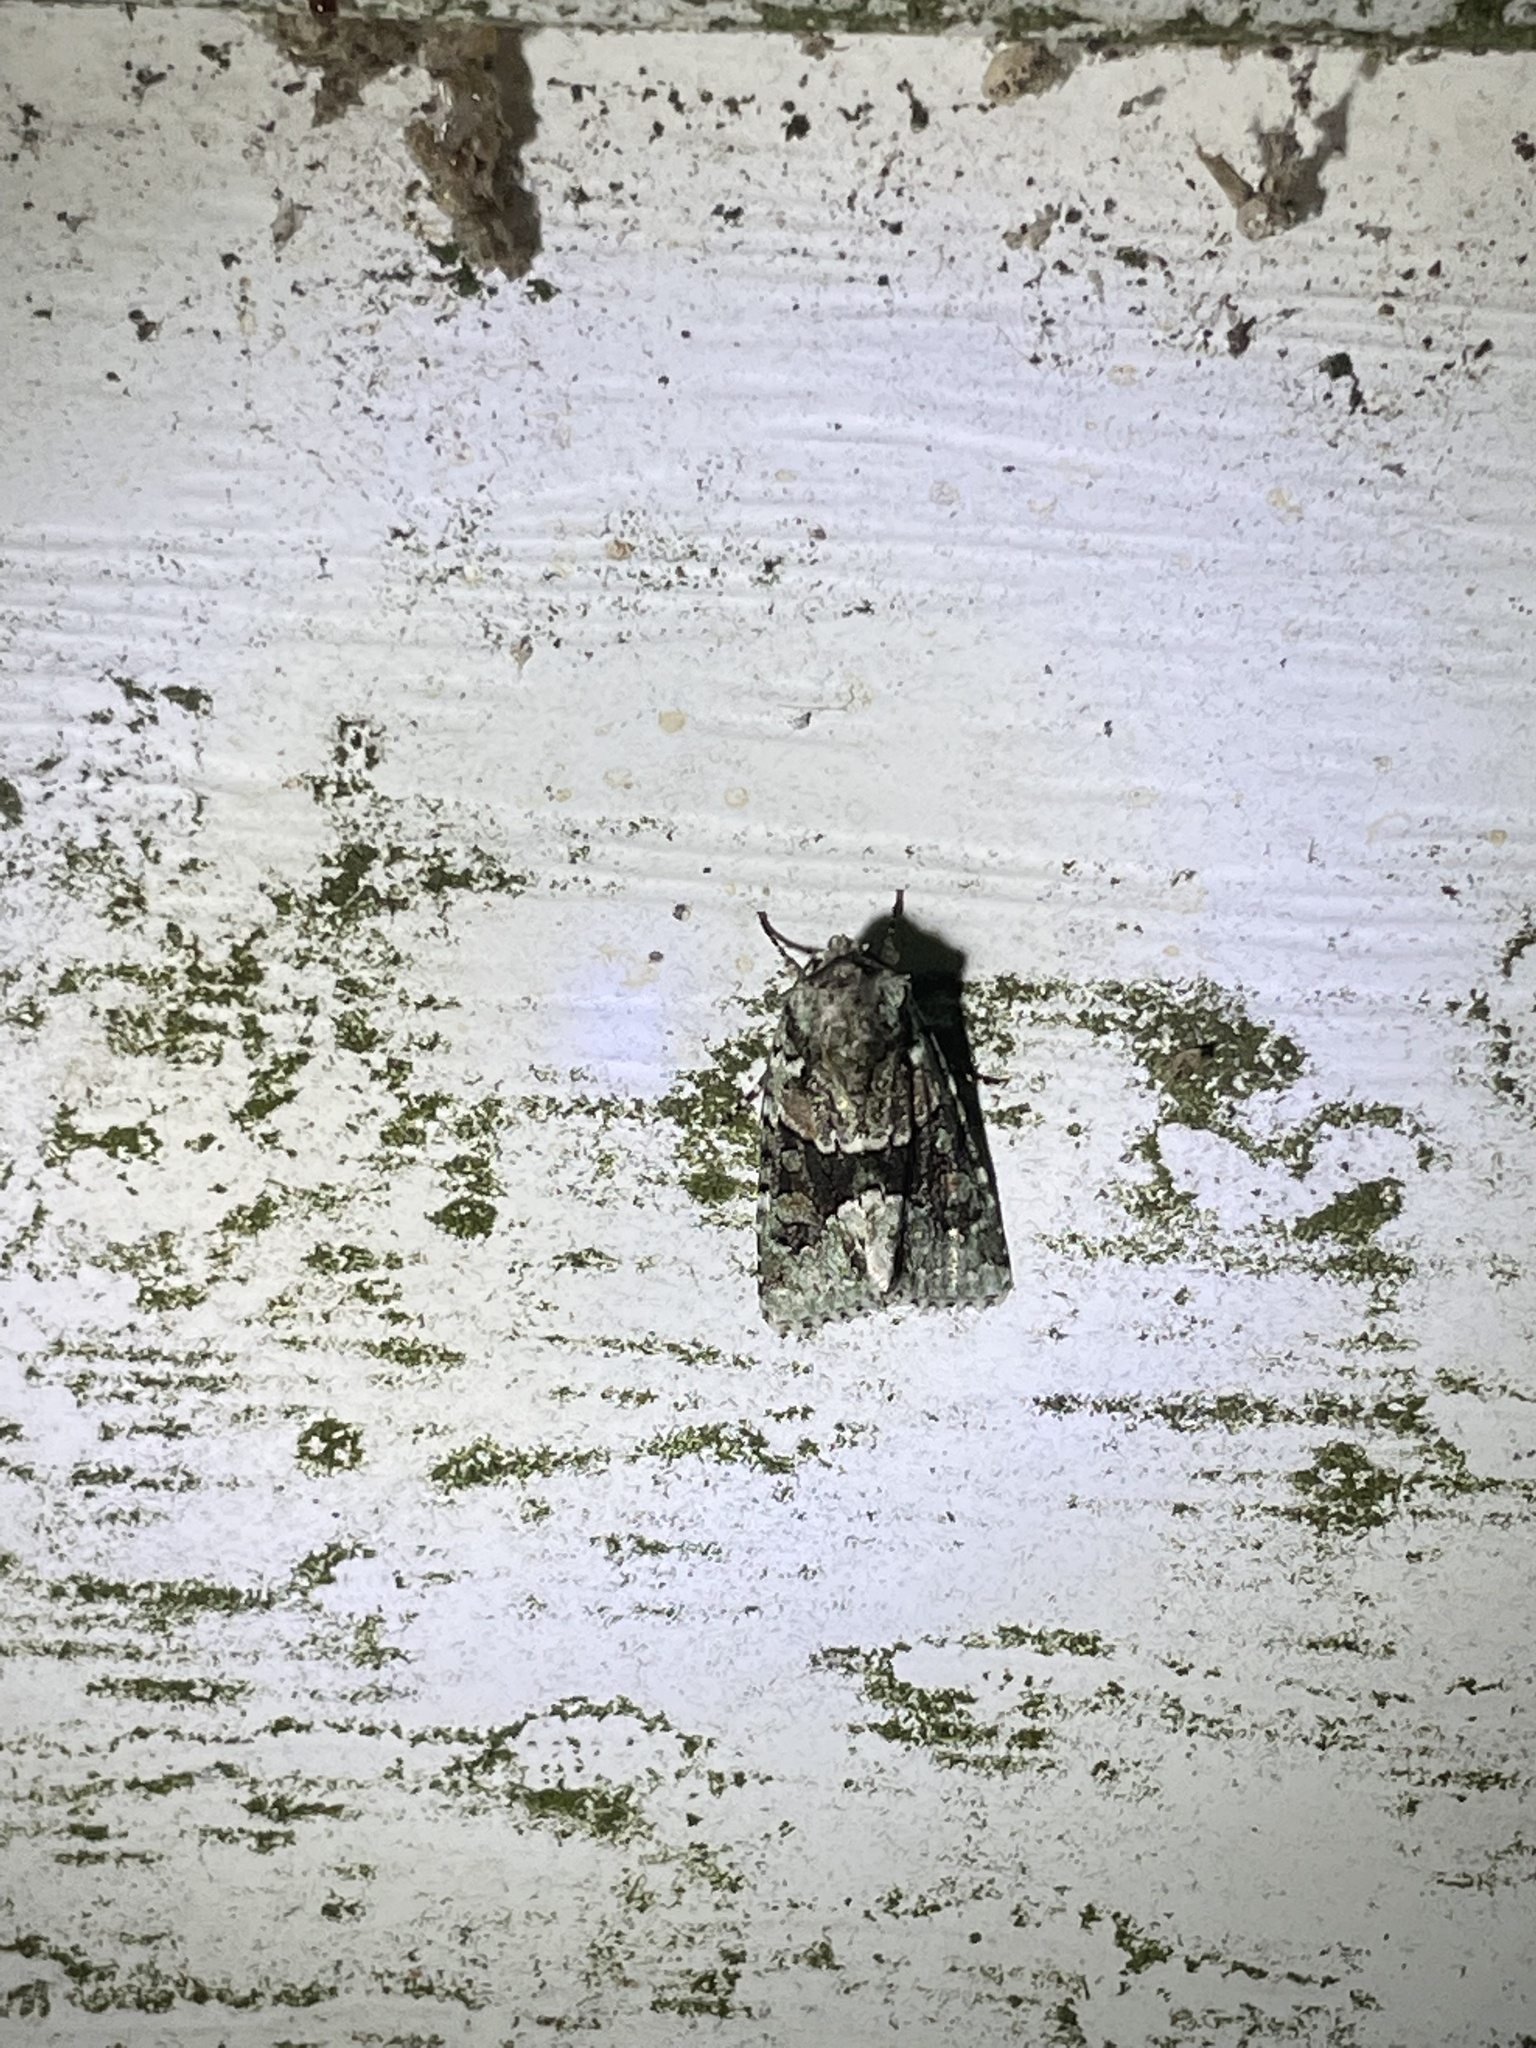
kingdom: Animalia
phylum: Arthropoda
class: Insecta
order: Lepidoptera
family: Noctuidae
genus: Lacinipolia
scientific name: Lacinipolia explicata
